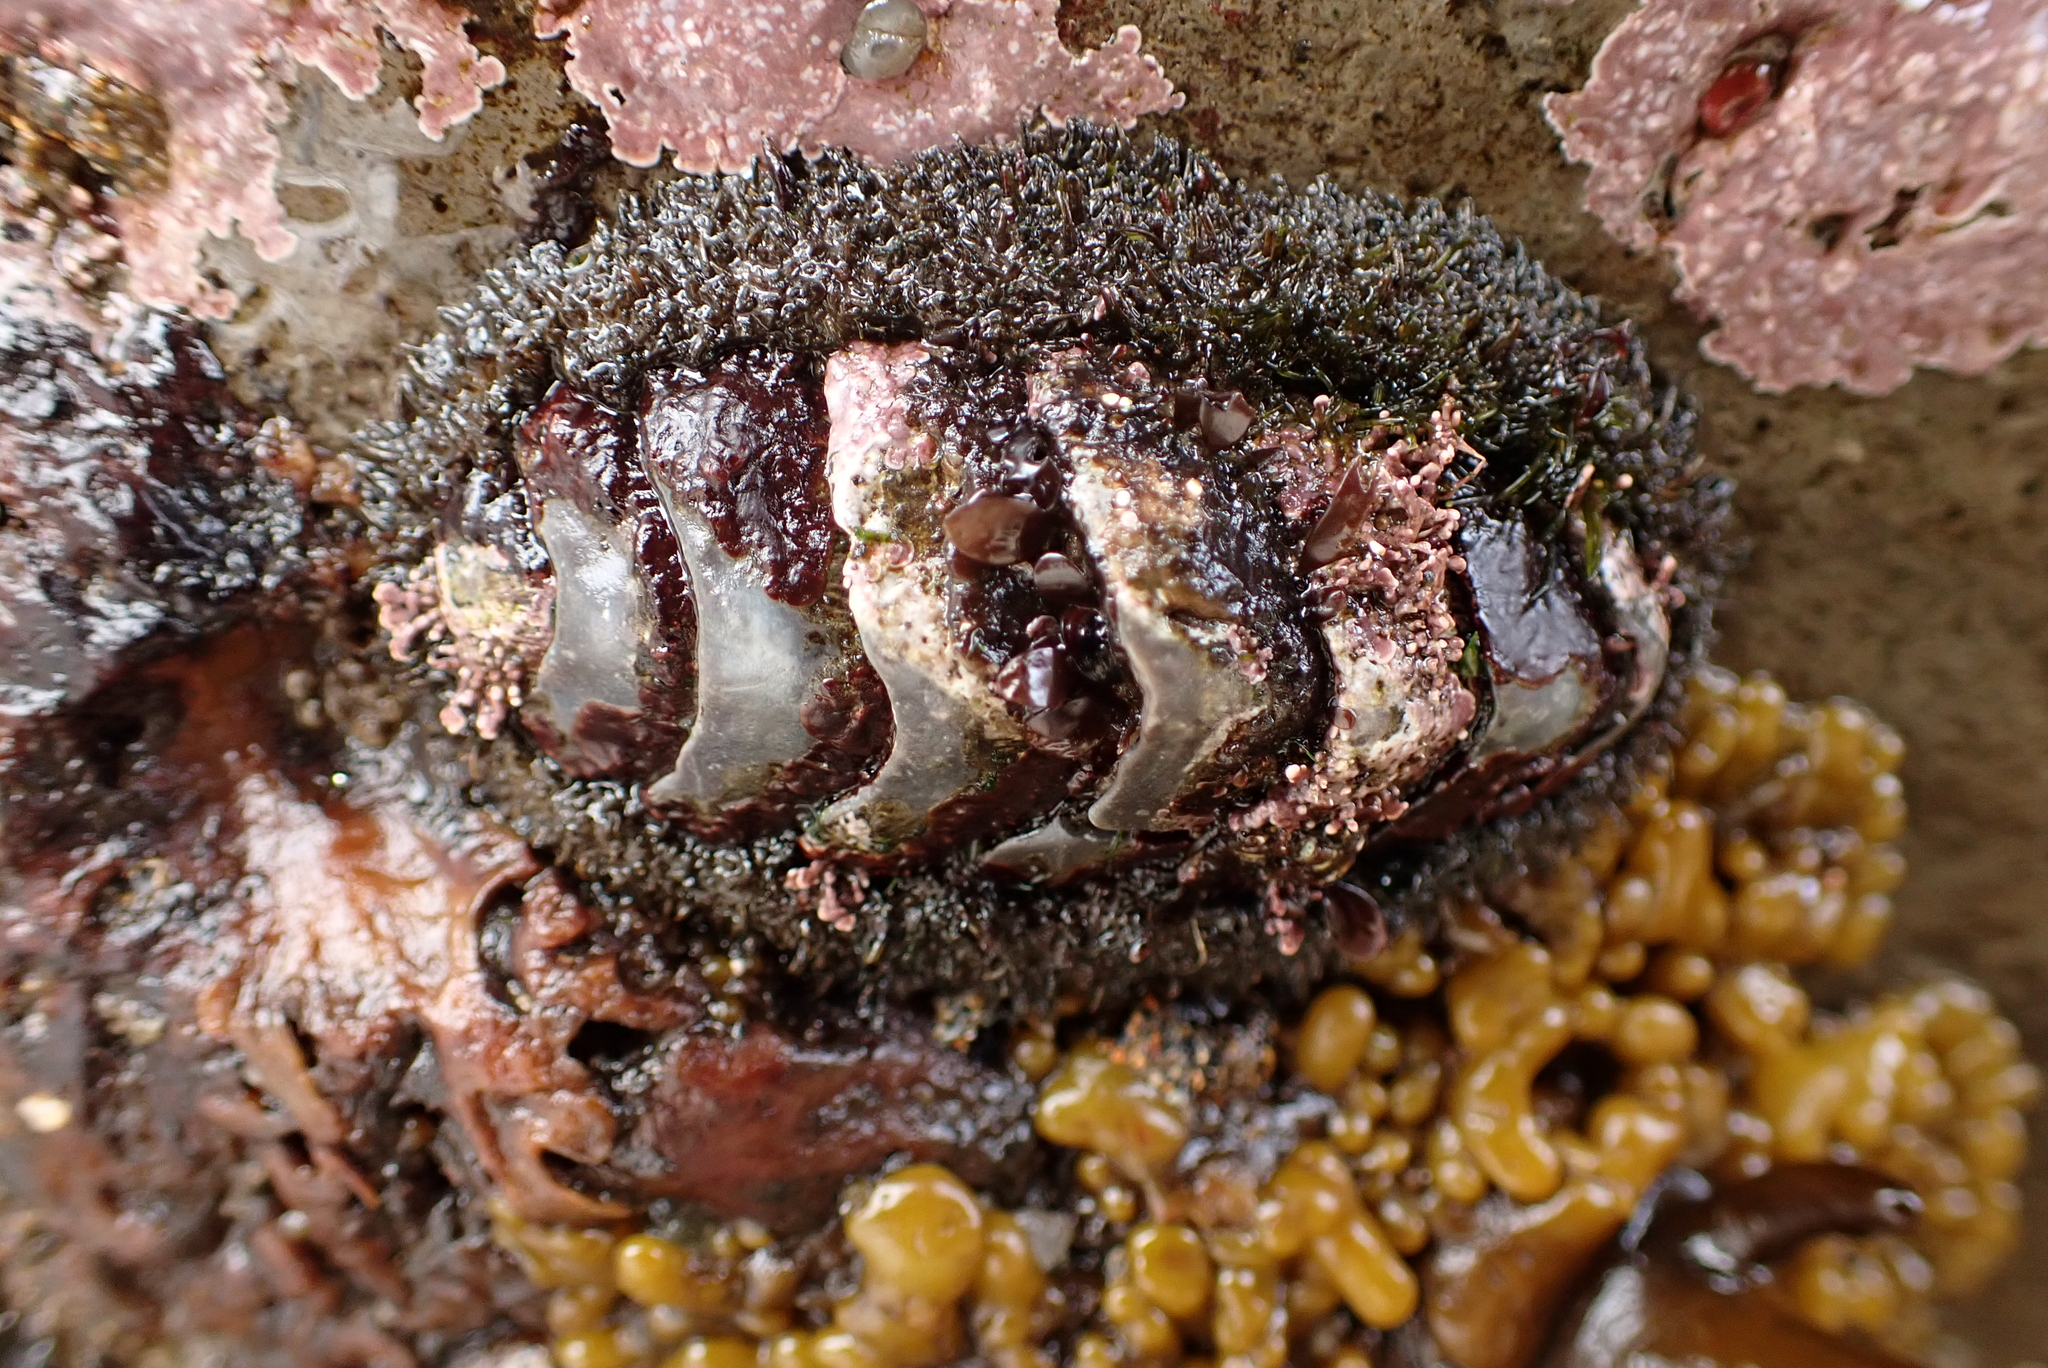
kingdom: Animalia
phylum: Mollusca
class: Polyplacophora
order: Chitonida
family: Mopaliidae
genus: Mopalia
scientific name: Mopalia muscosa
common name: Mossy chiton
